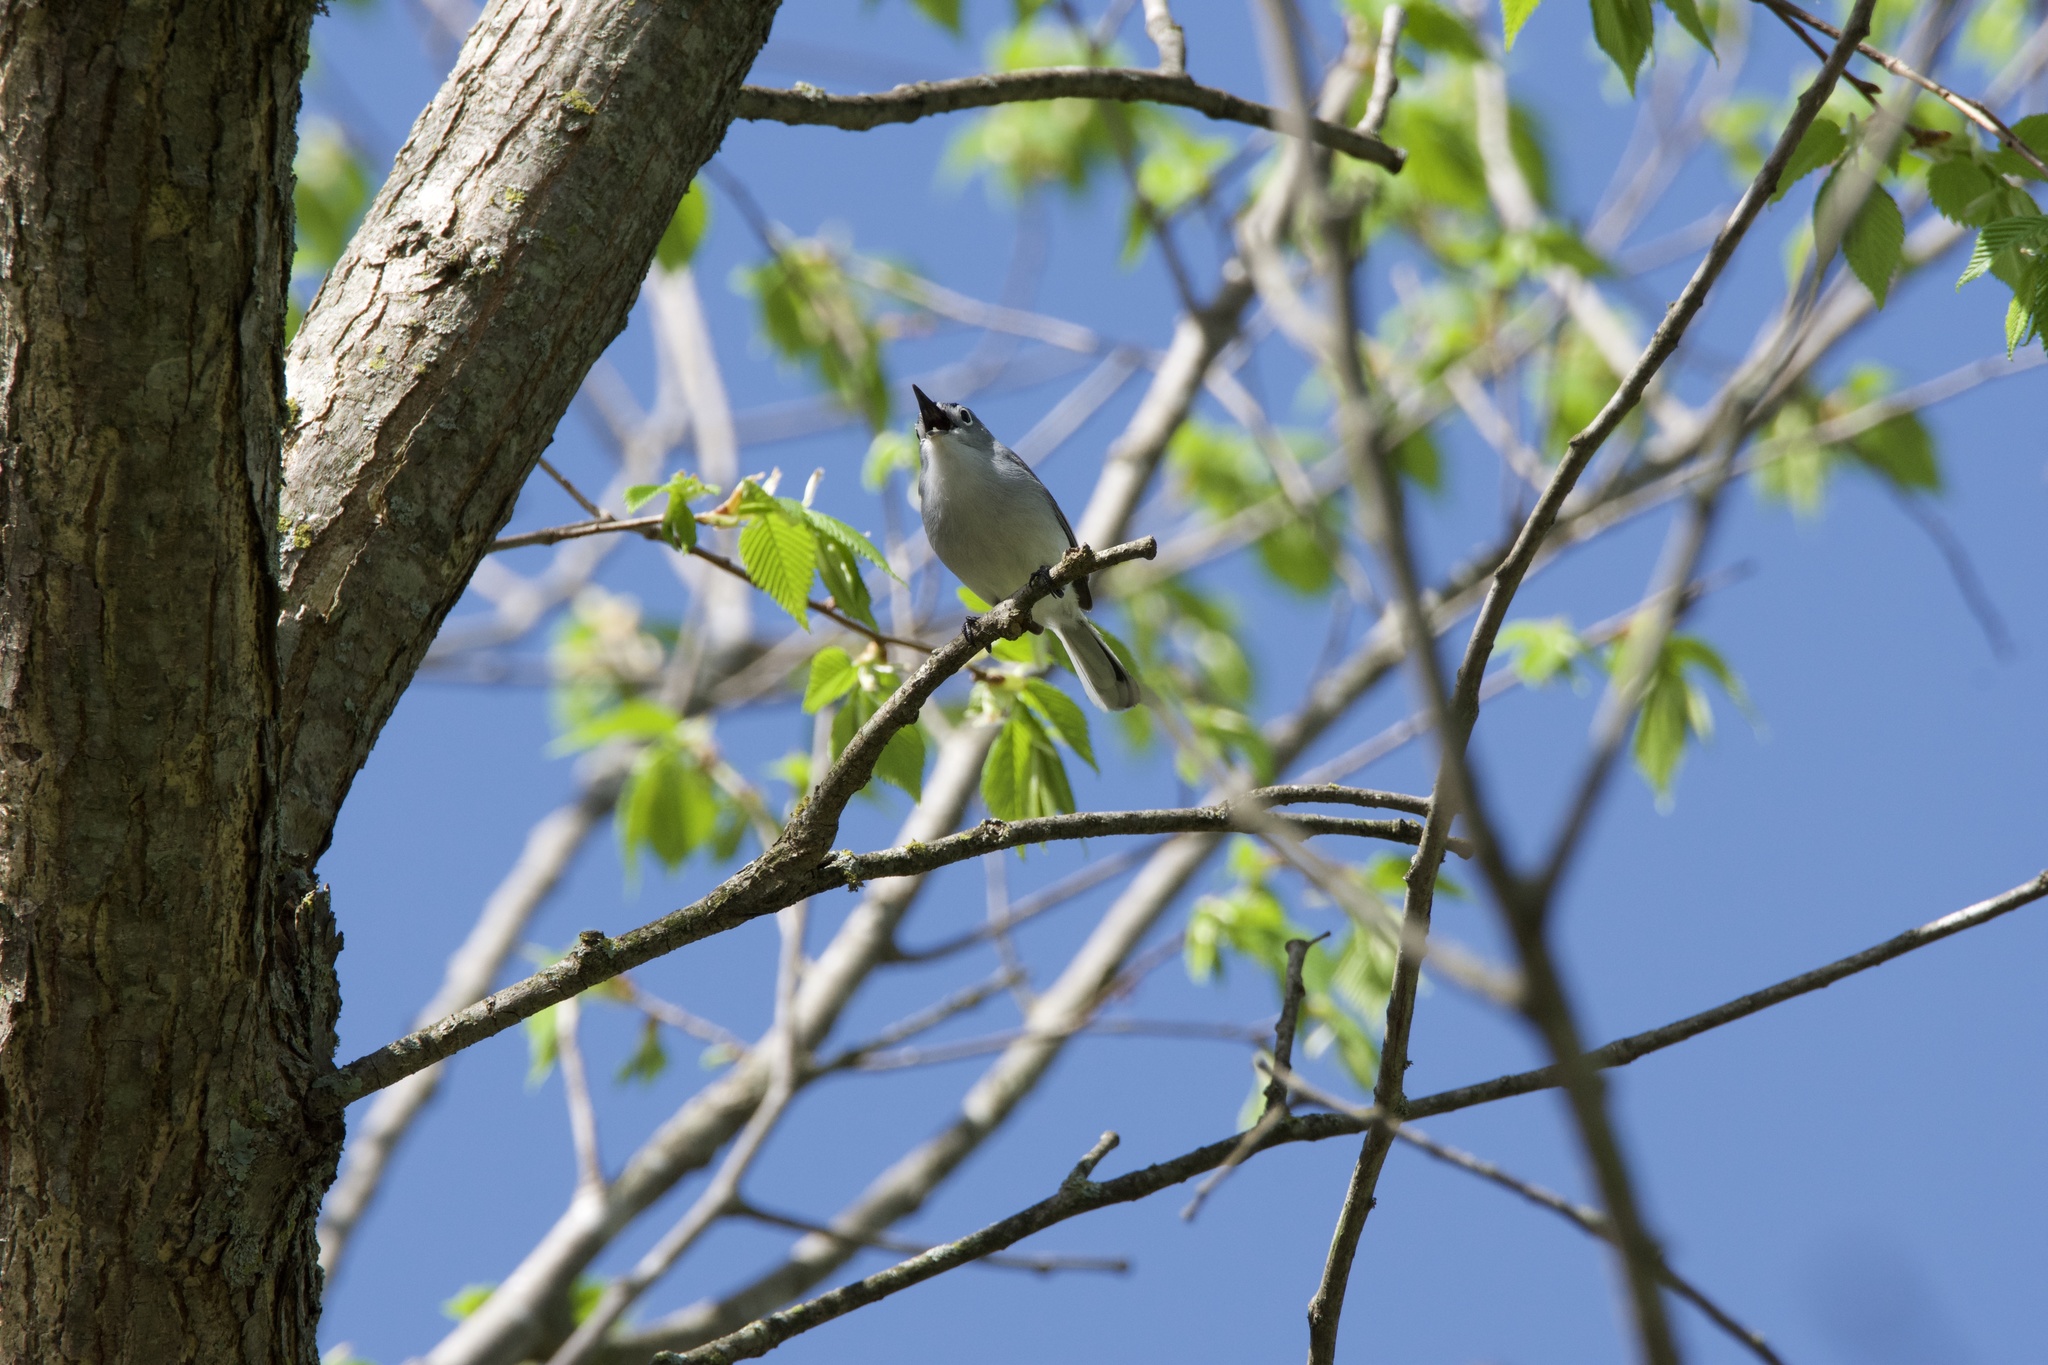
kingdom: Animalia
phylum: Chordata
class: Aves
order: Passeriformes
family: Polioptilidae
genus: Polioptila
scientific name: Polioptila caerulea
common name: Blue-gray gnatcatcher
